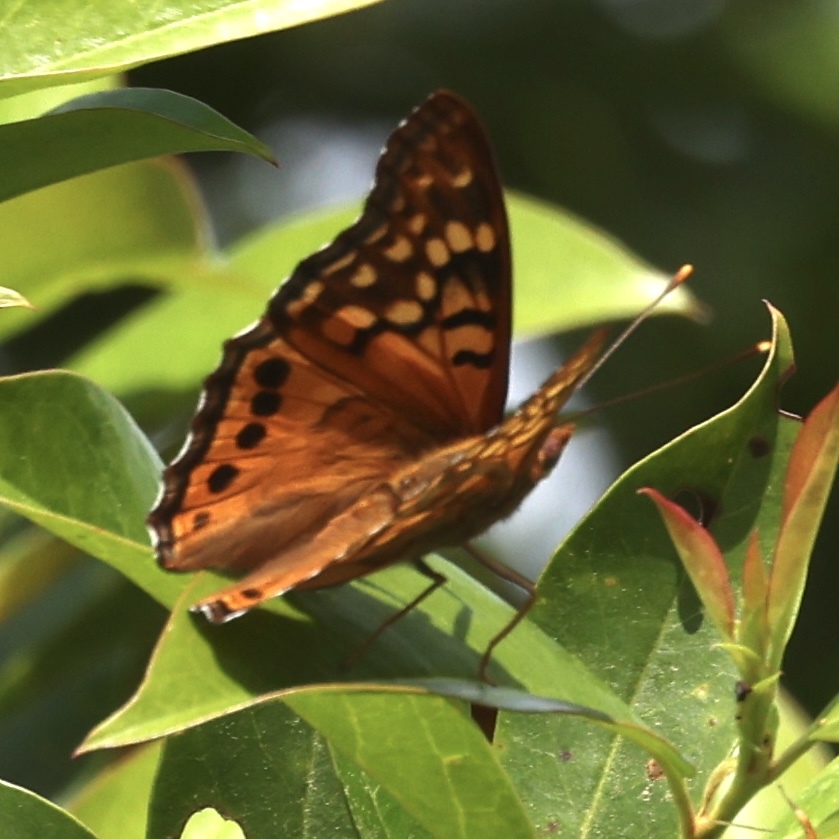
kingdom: Animalia
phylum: Arthropoda
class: Insecta
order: Lepidoptera
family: Nymphalidae
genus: Asterocampa
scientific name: Asterocampa clyton
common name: Tawny emperor
